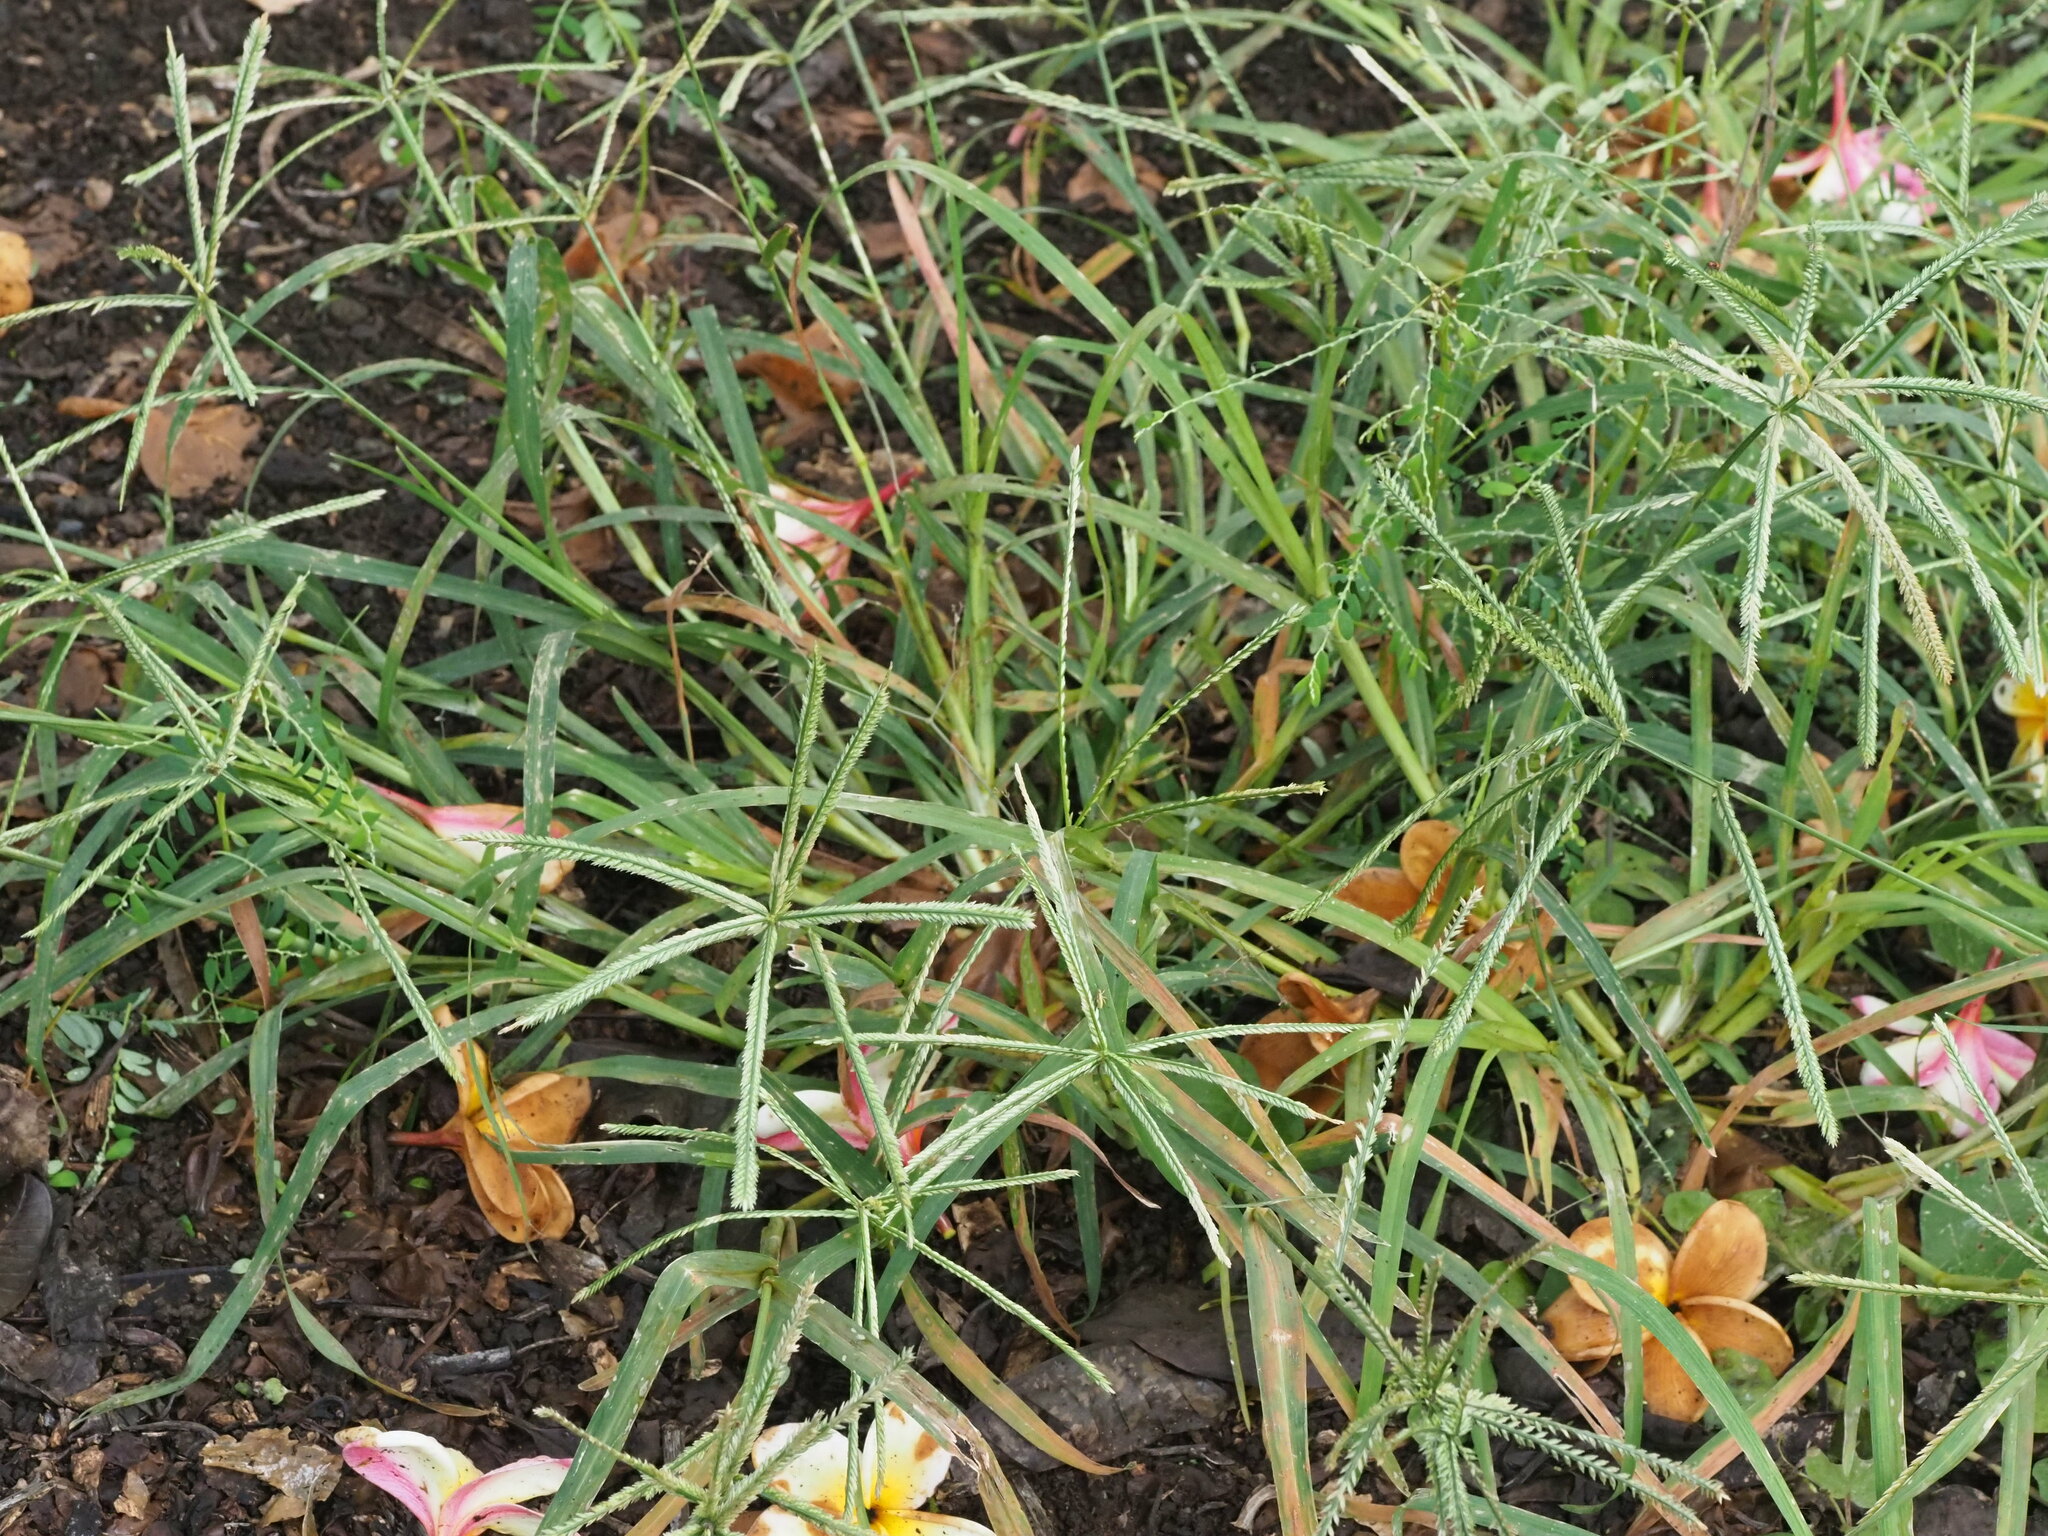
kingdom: Plantae
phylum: Tracheophyta
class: Liliopsida
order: Poales
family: Poaceae
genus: Eleusine
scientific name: Eleusine indica
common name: Yard-grass
